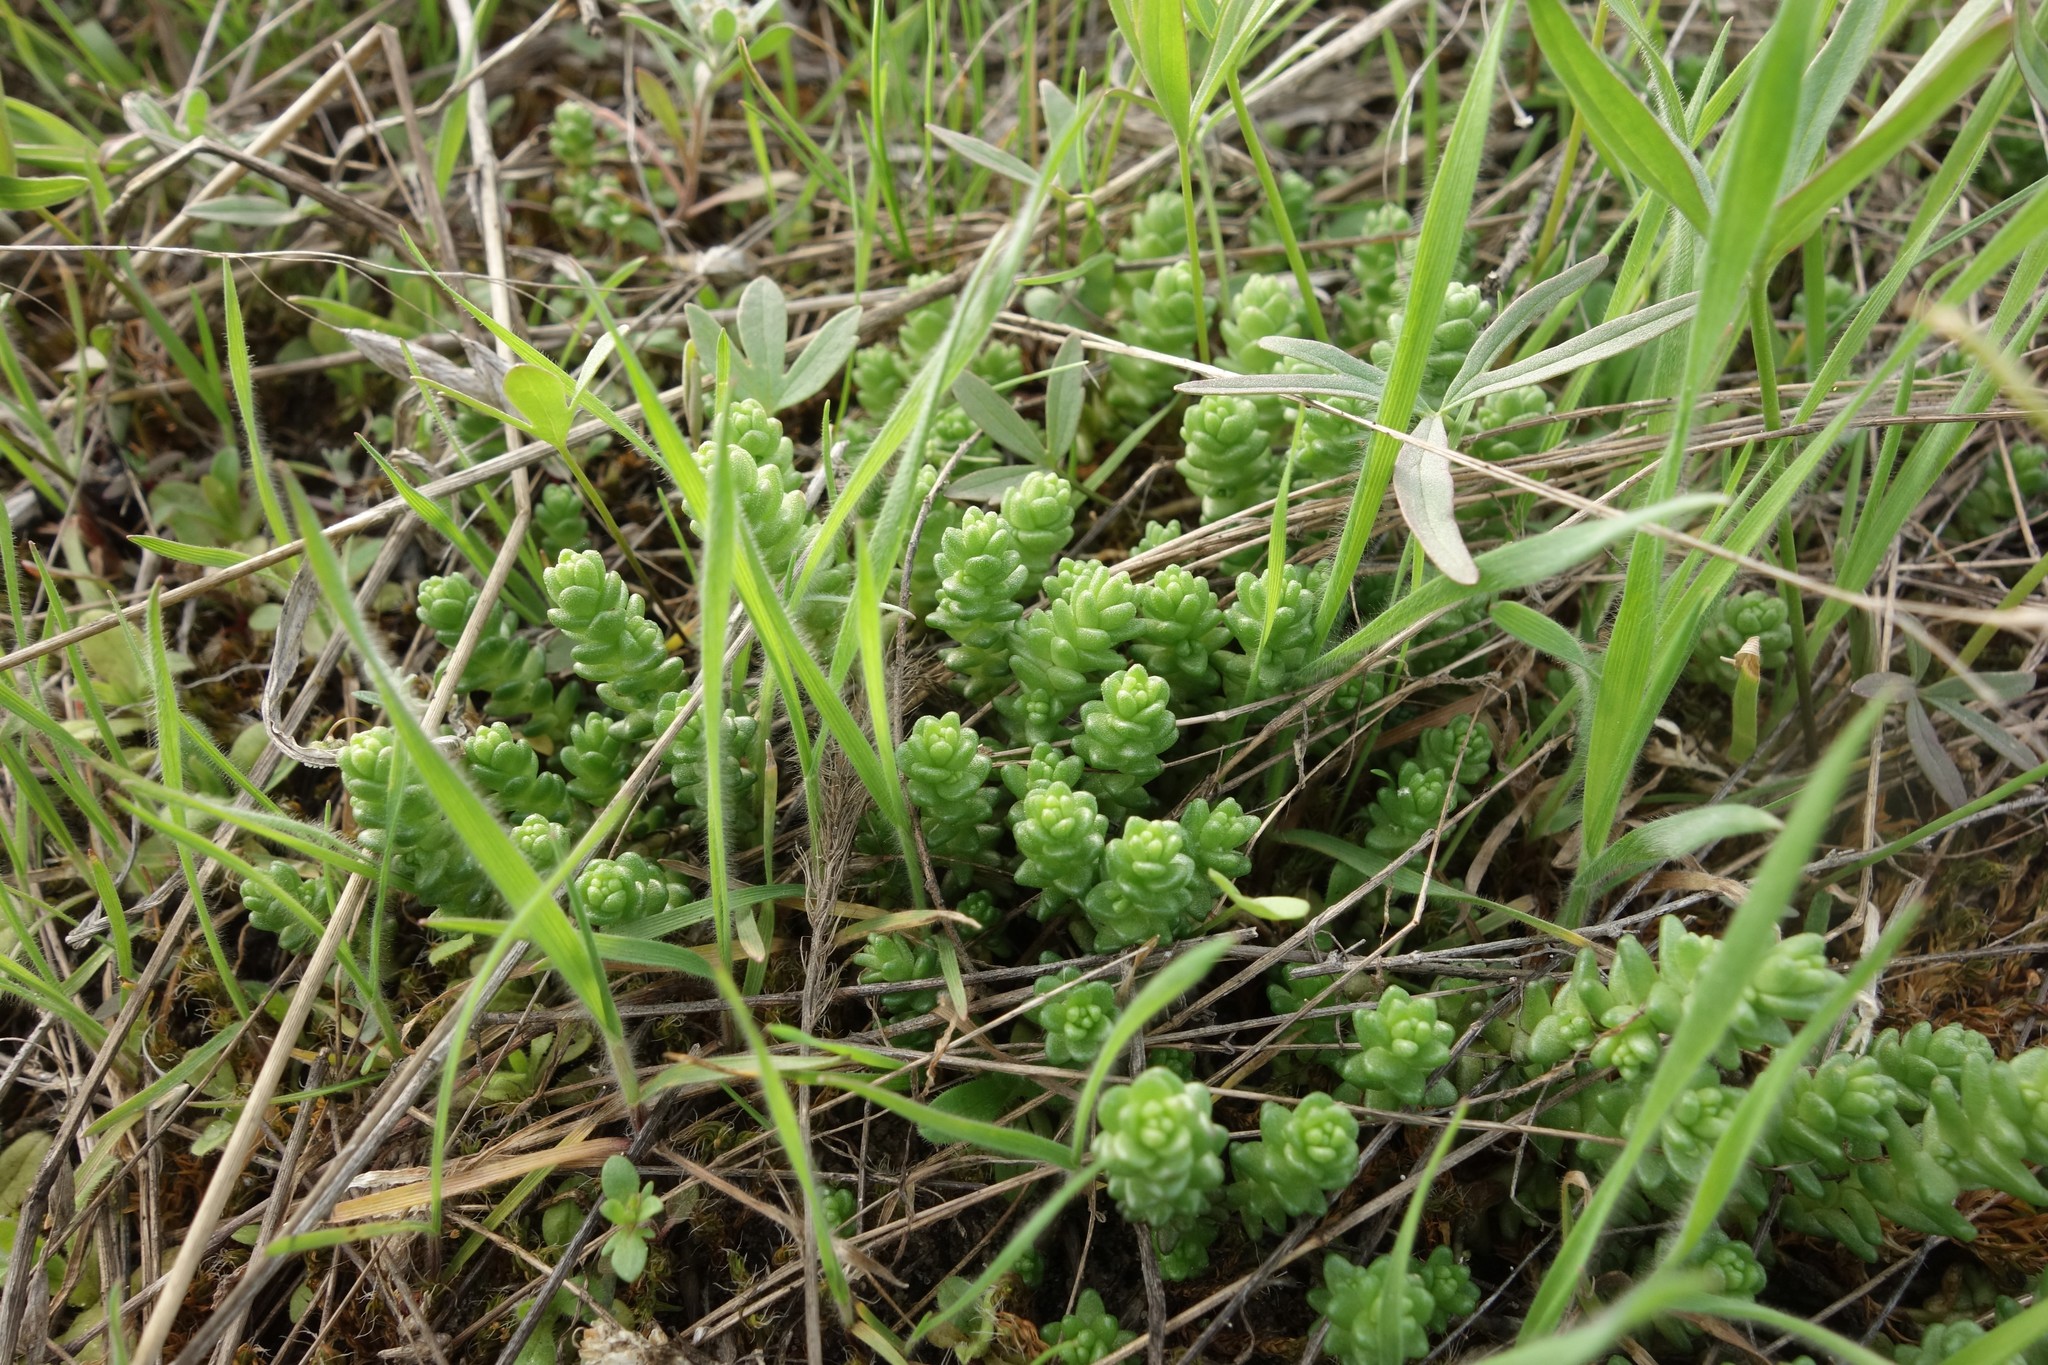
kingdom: Plantae
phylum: Tracheophyta
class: Magnoliopsida
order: Saxifragales
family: Crassulaceae
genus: Sedum
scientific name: Sedum acre
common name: Biting stonecrop
